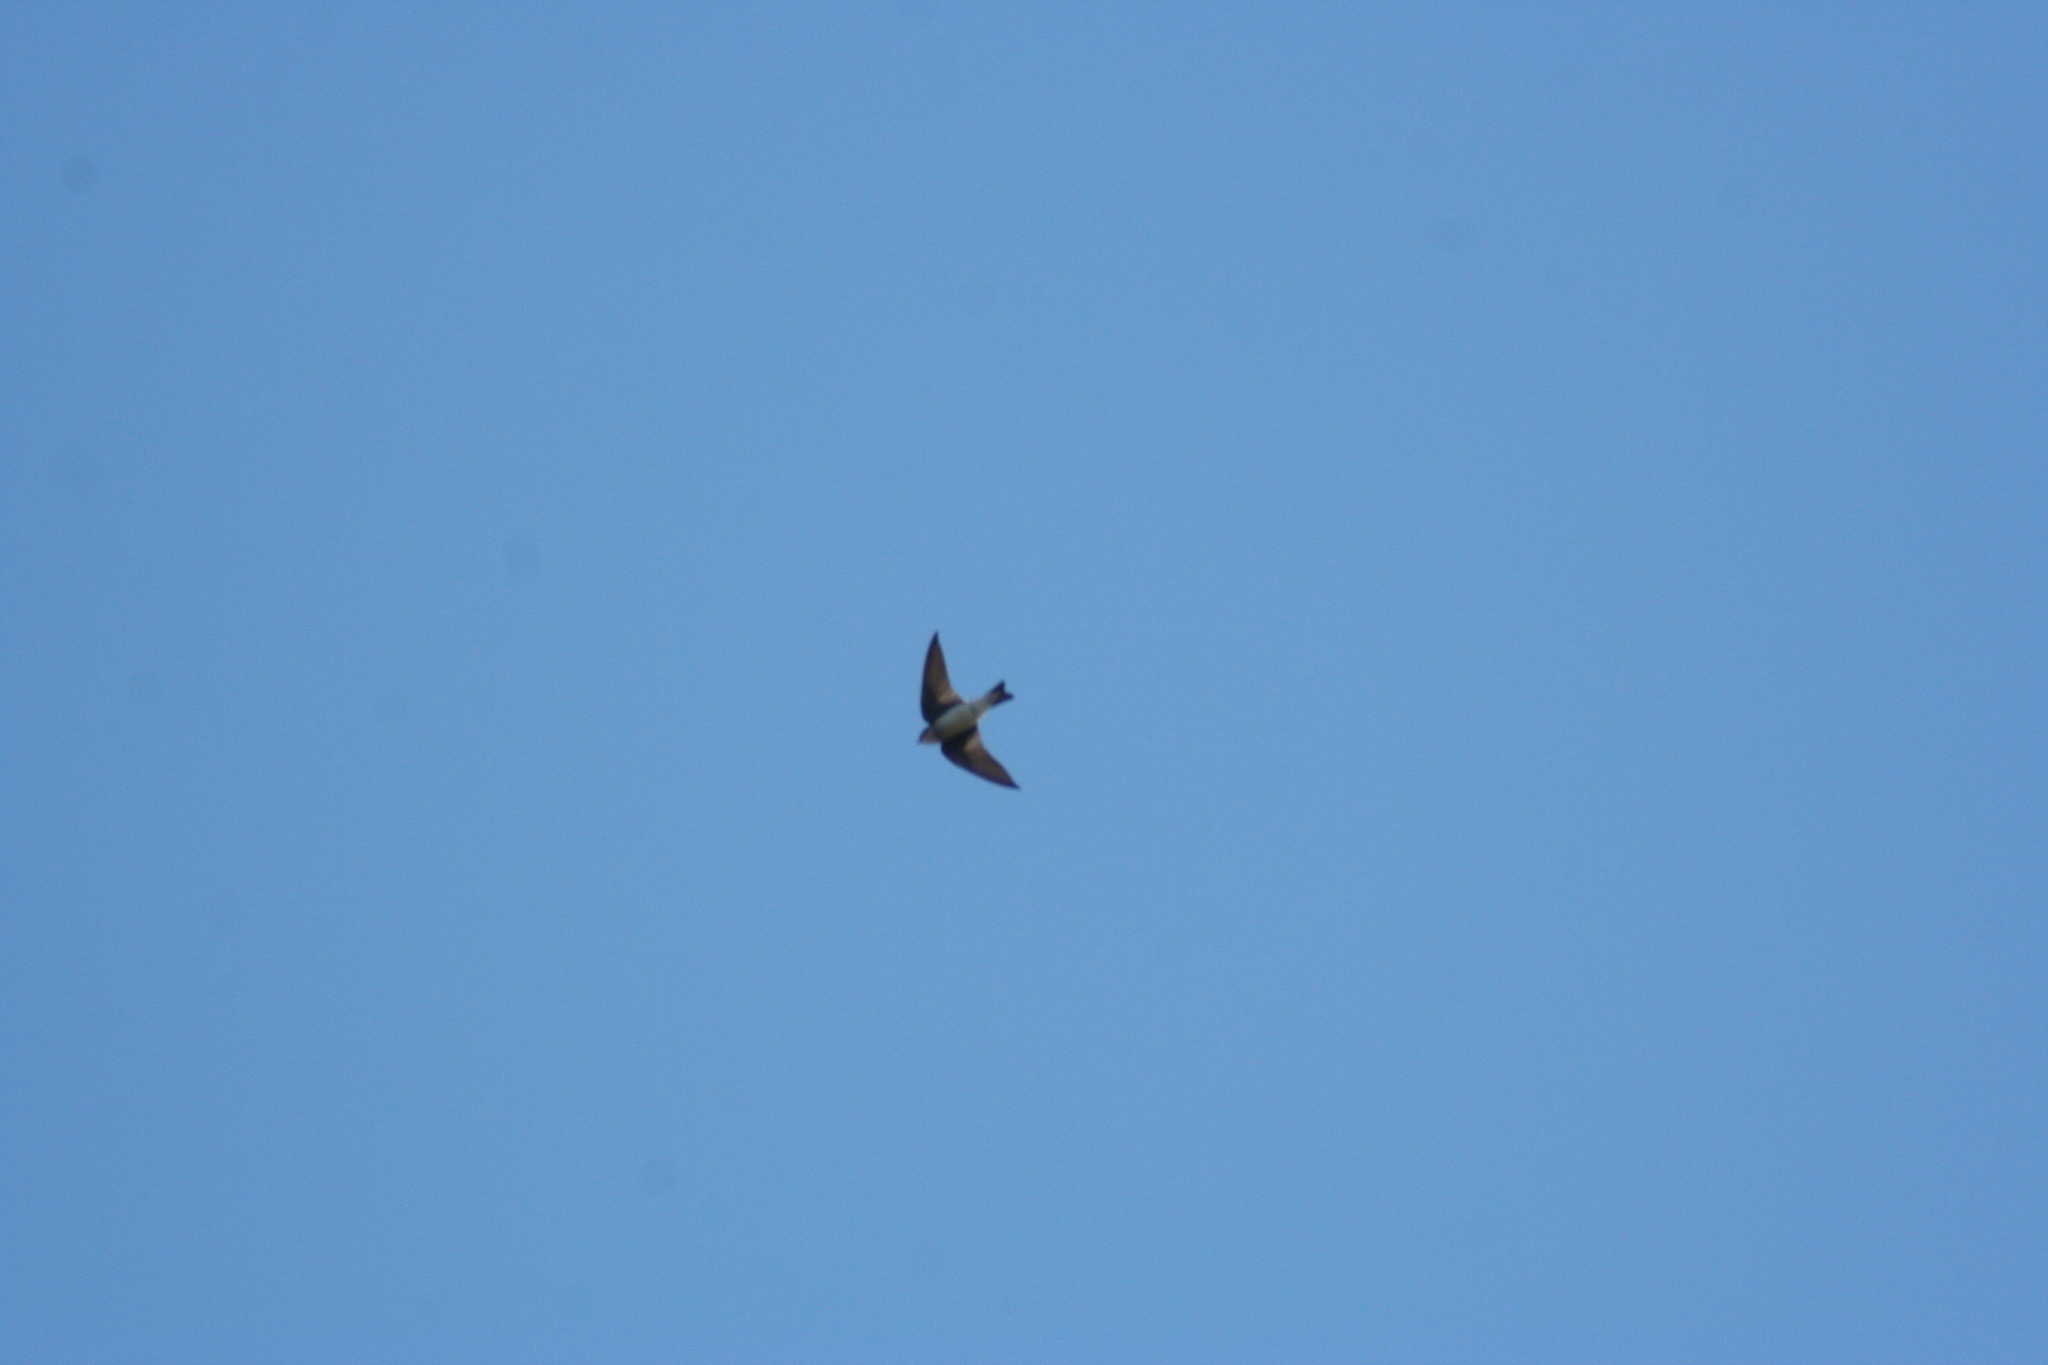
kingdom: Animalia
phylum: Chordata
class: Aves
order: Passeriformes
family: Hirundinidae
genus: Progne
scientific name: Progne chalybea
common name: Grey-breasted martin
